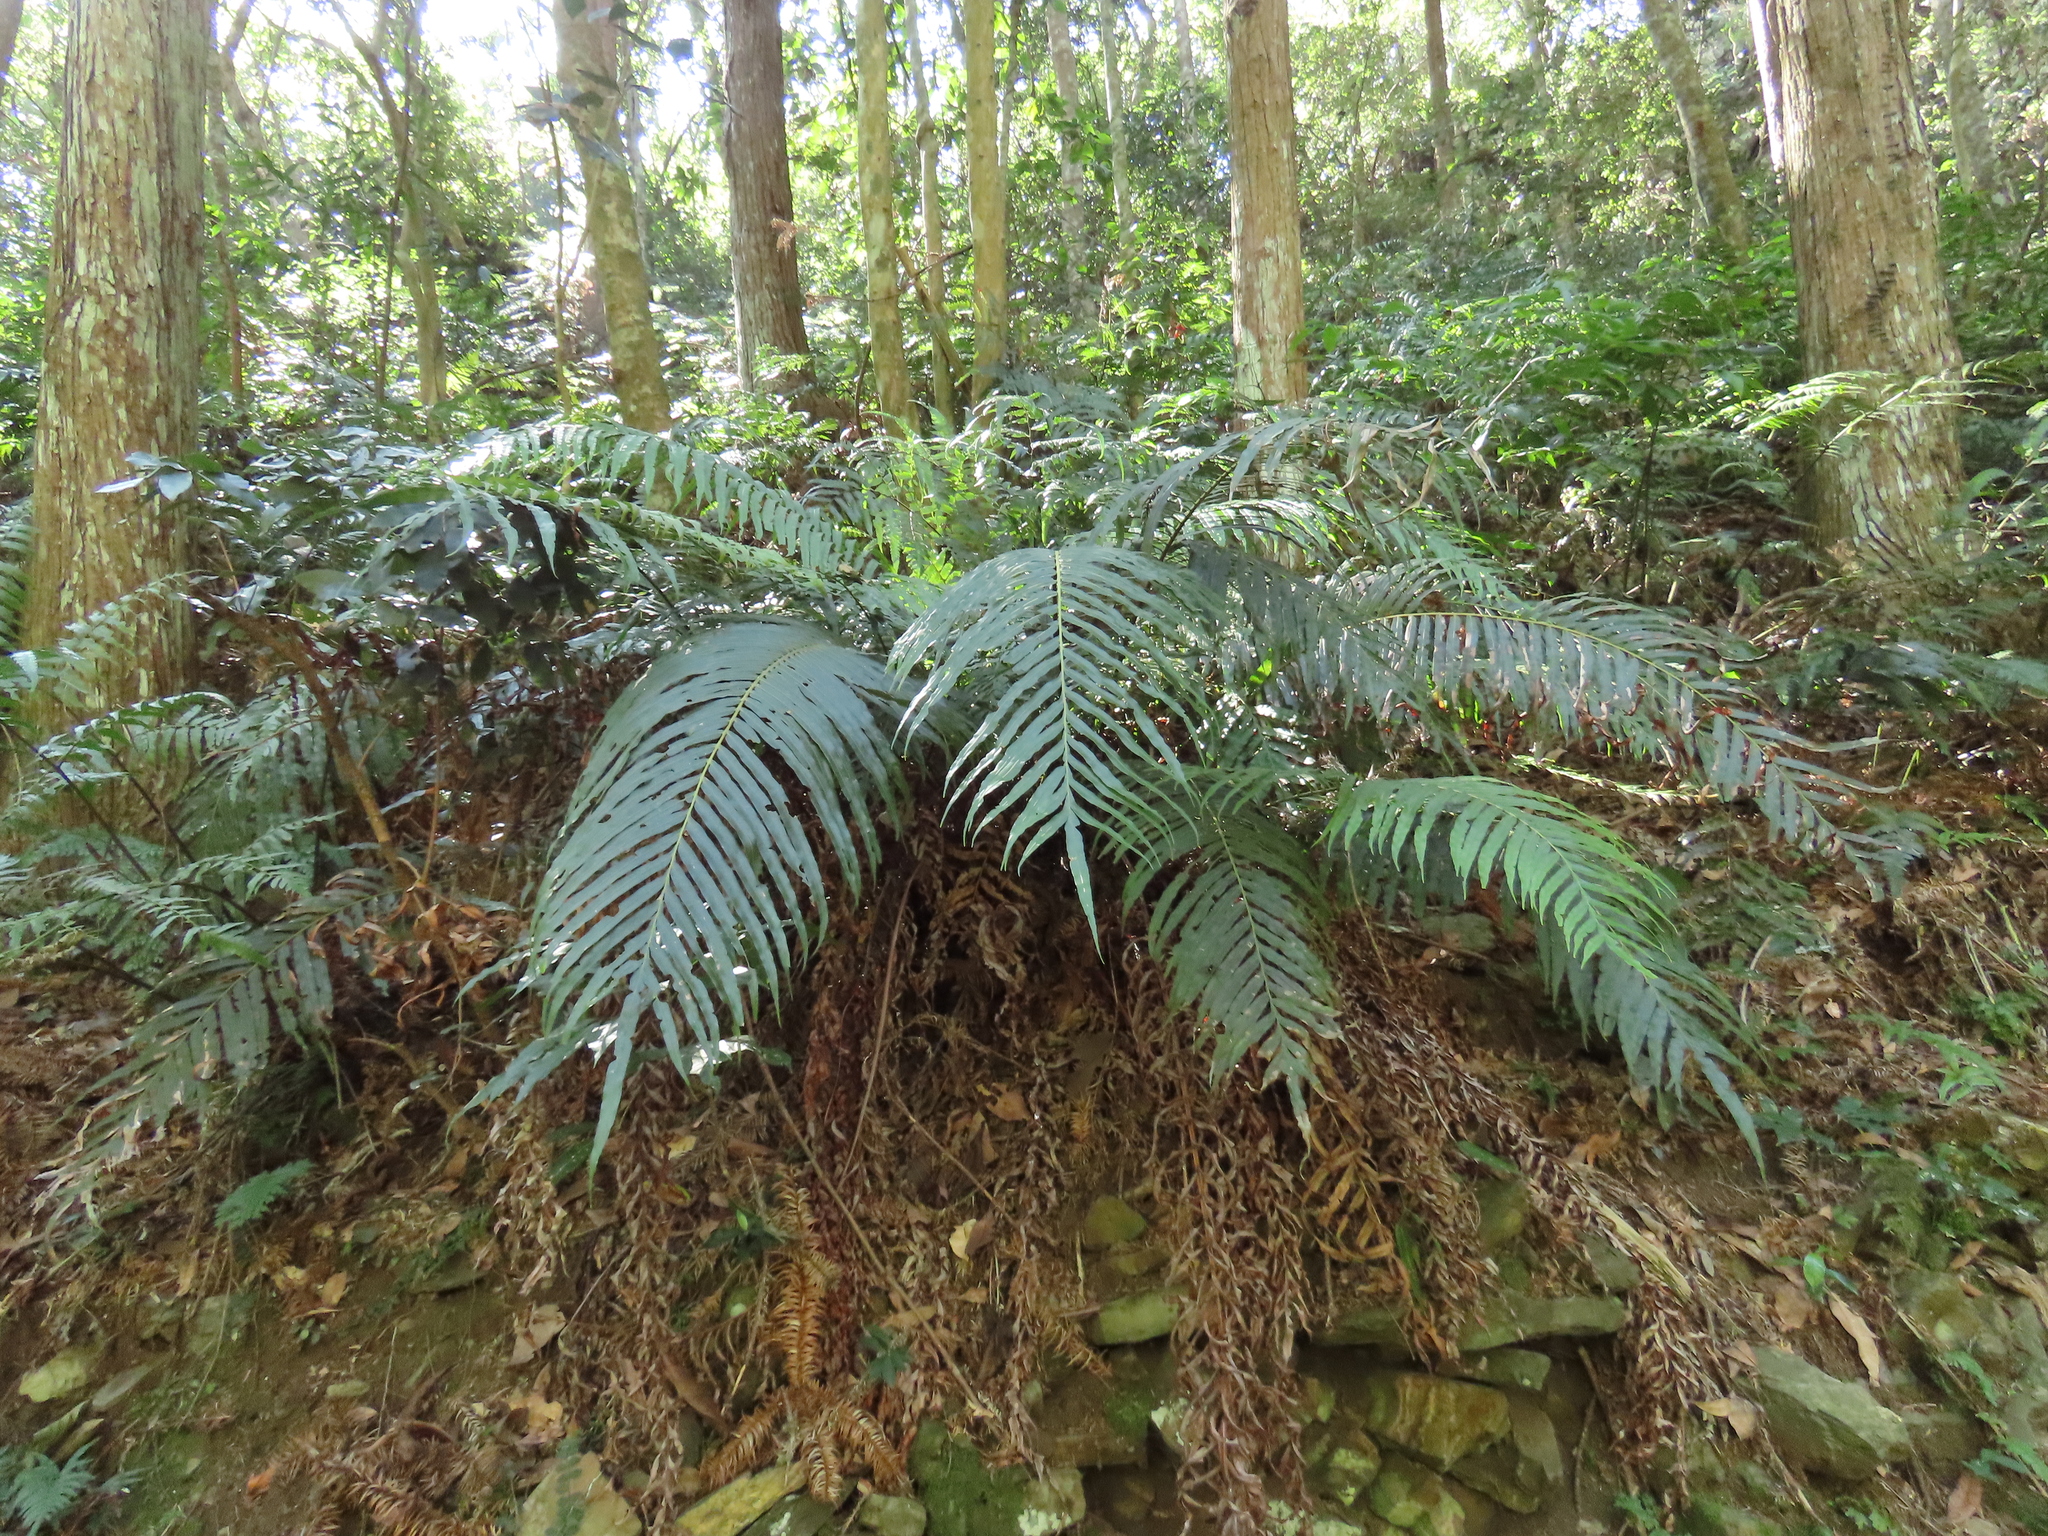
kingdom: Plantae
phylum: Tracheophyta
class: Polypodiopsida
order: Polypodiales
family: Blechnaceae
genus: Blechnopsis
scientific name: Blechnopsis orientalis
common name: Oriental blechnum
